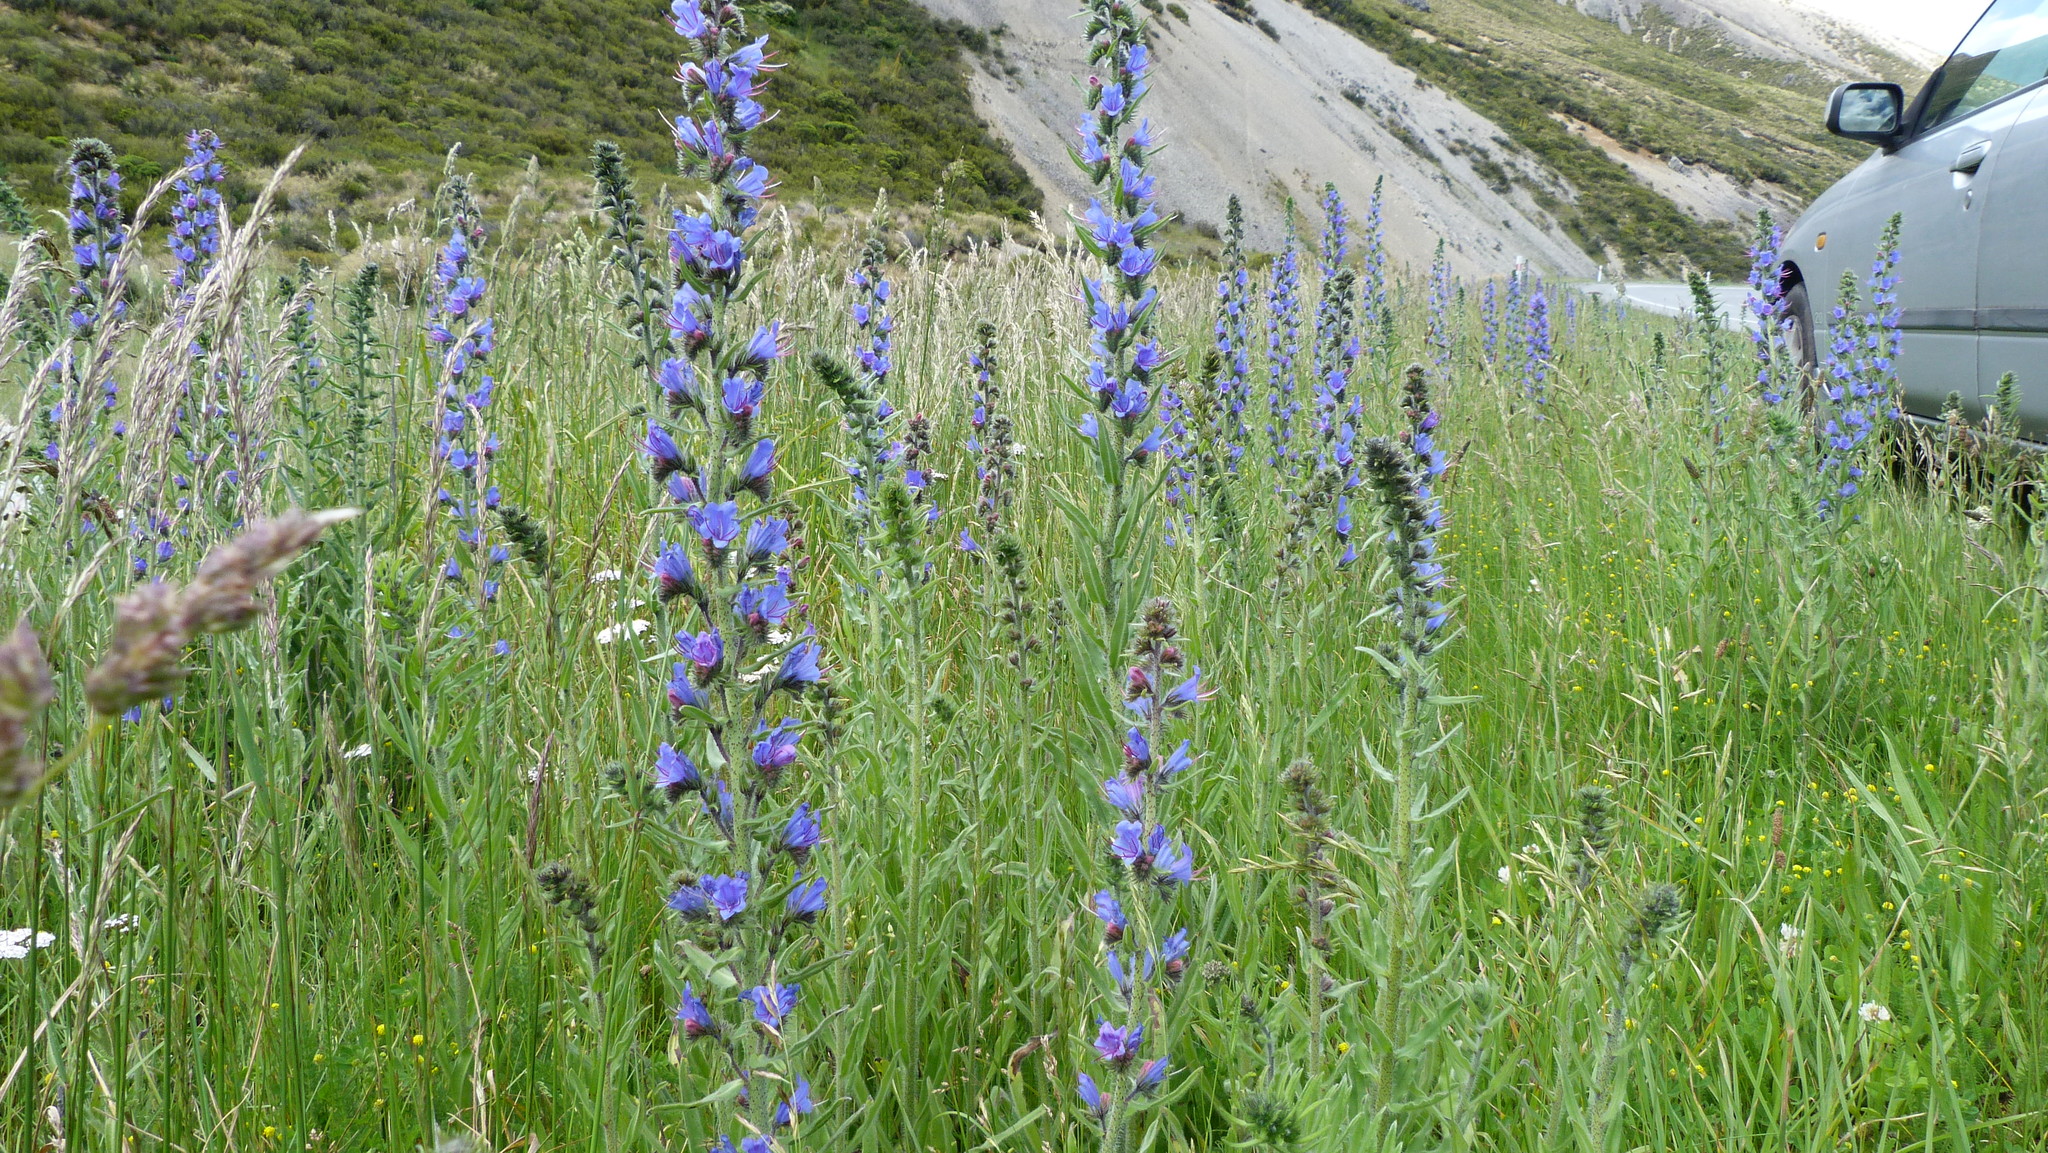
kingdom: Plantae
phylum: Tracheophyta
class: Magnoliopsida
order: Boraginales
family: Boraginaceae
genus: Echium
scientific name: Echium vulgare
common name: Common viper's bugloss
